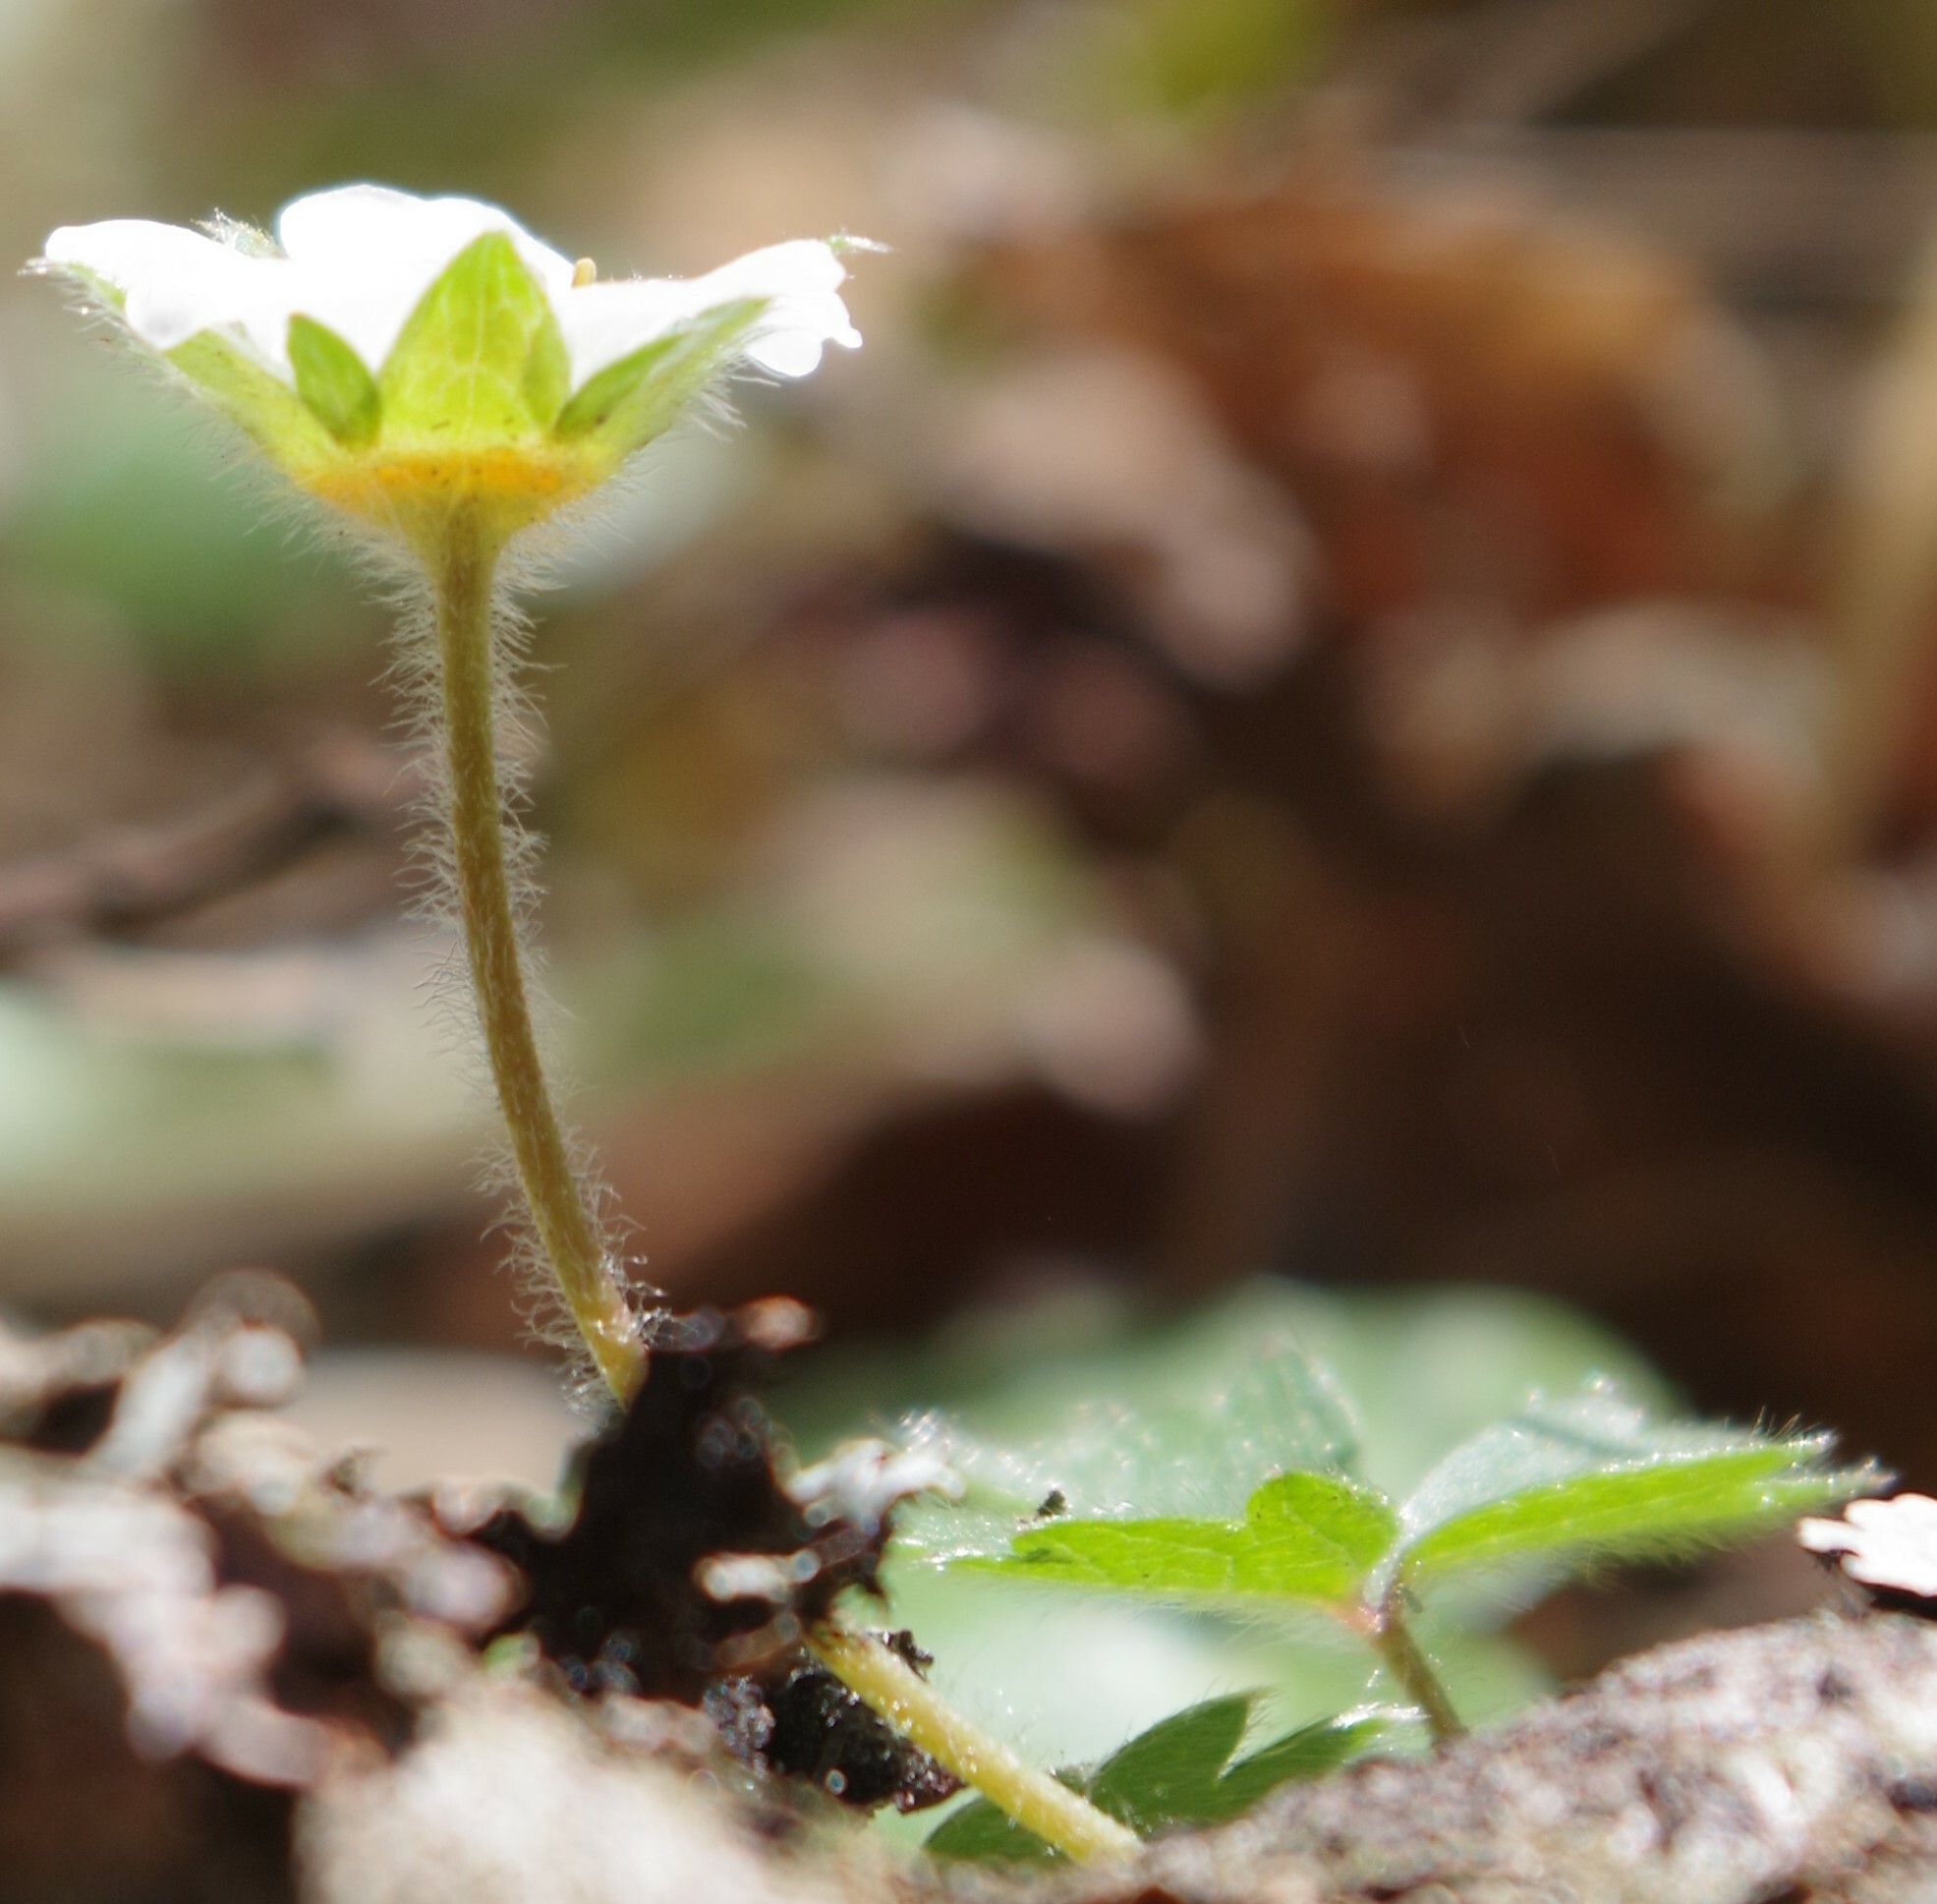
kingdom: Plantae
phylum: Tracheophyta
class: Magnoliopsida
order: Rosales
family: Rosaceae
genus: Potentilla
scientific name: Potentilla sterilis
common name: Barren strawberry
